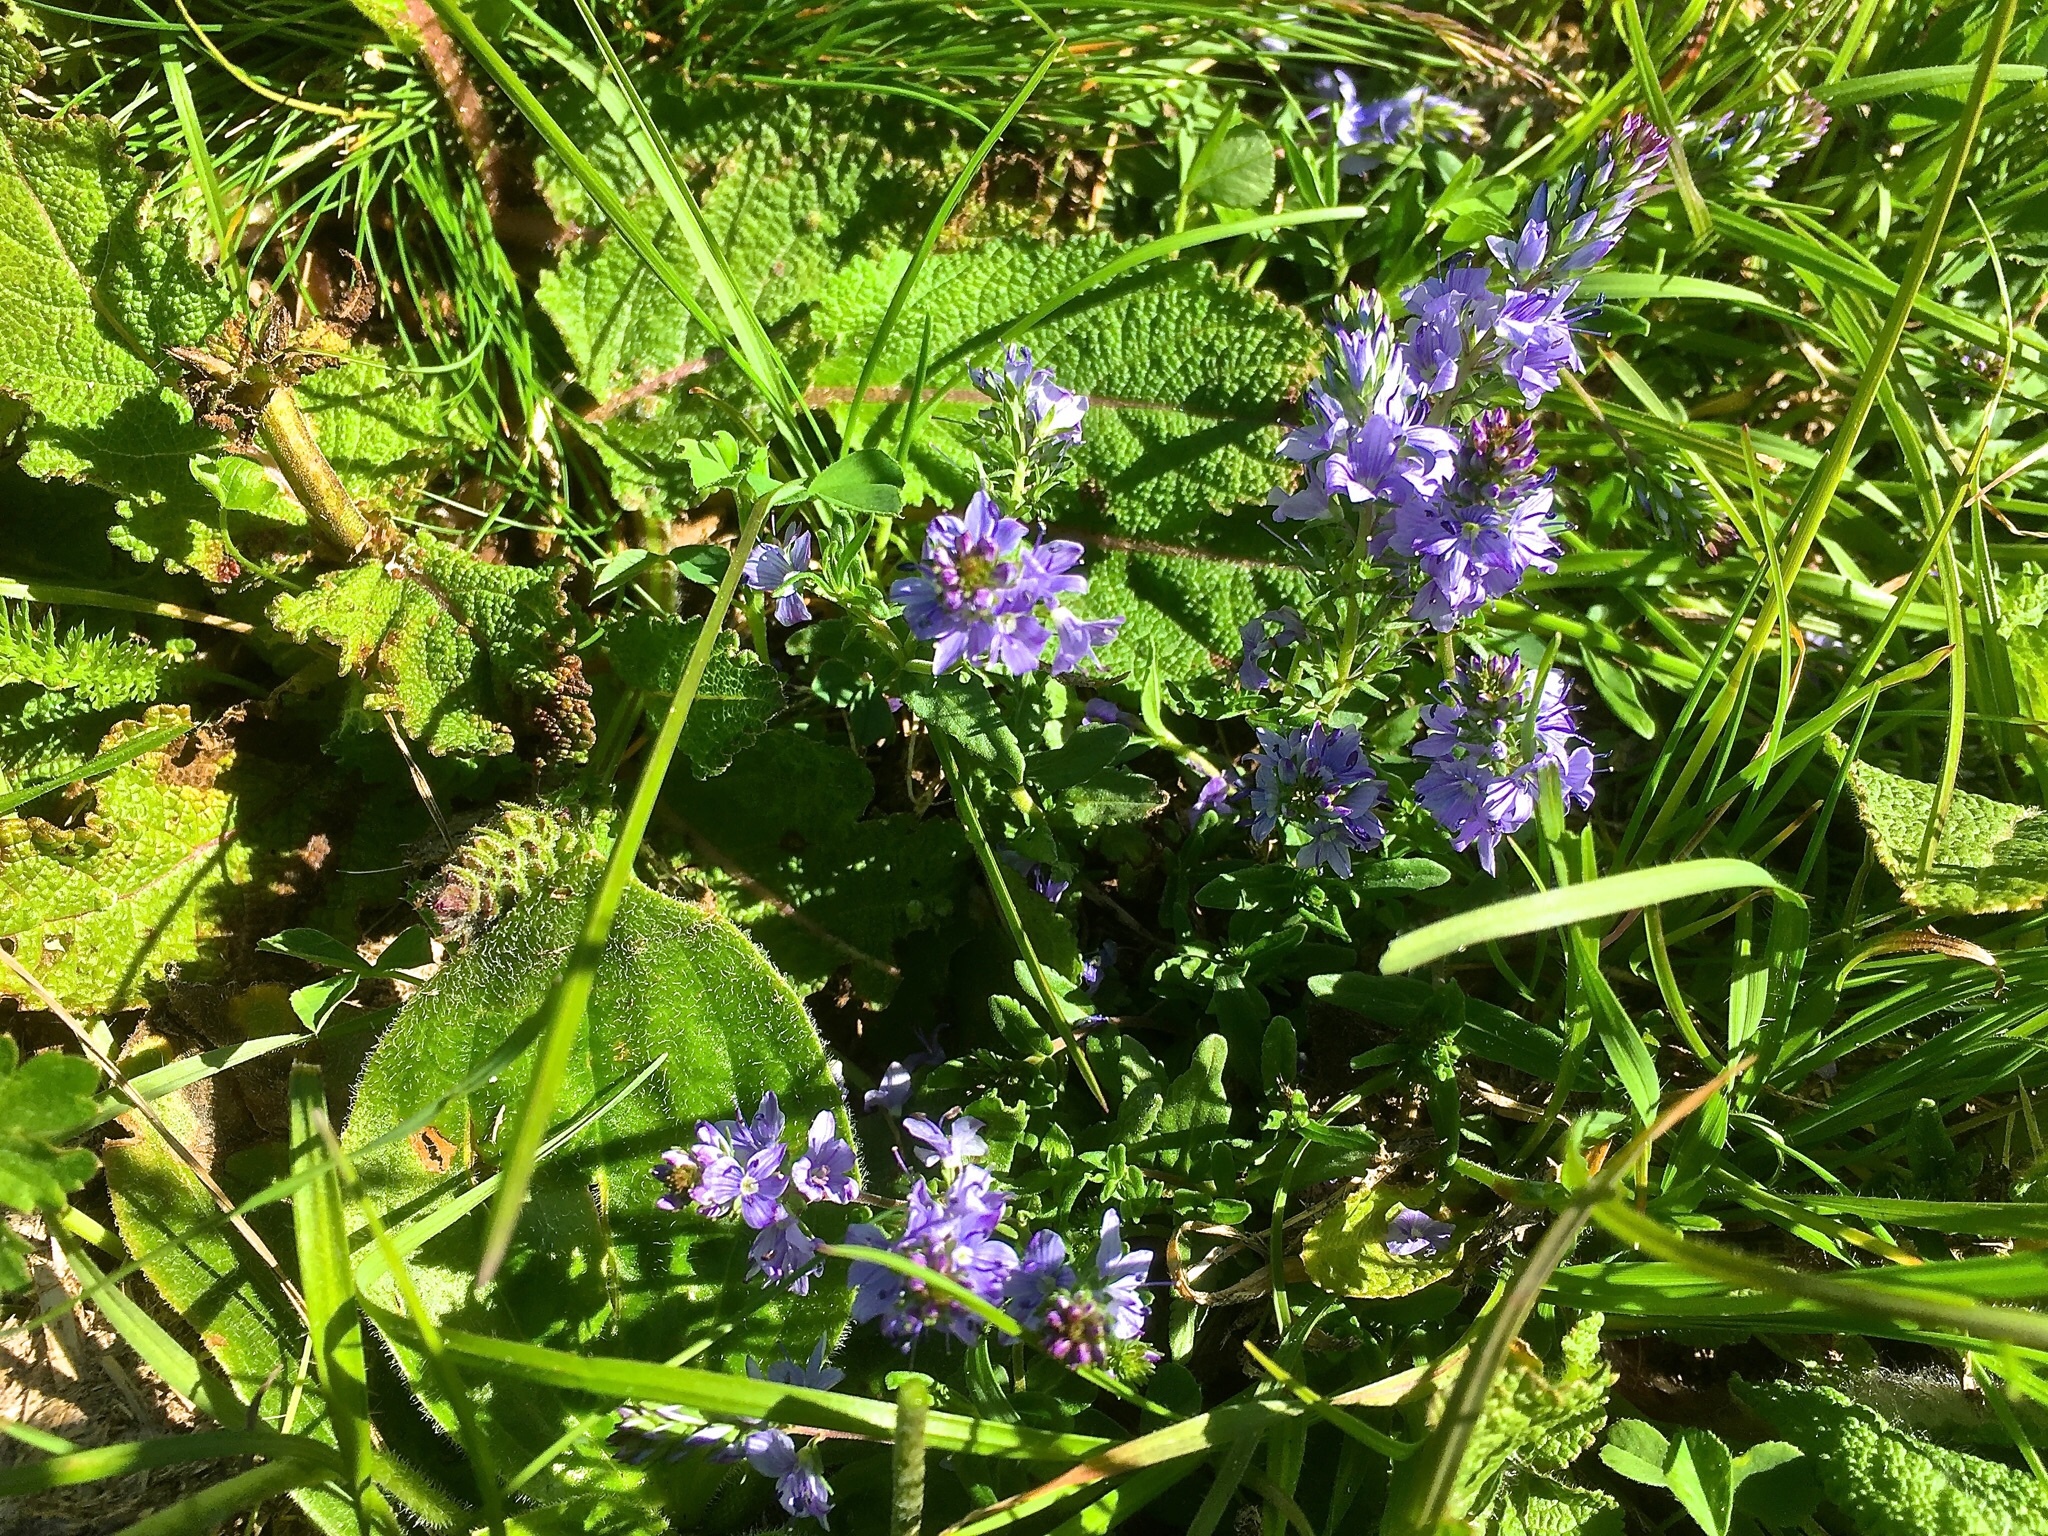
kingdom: Plantae
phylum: Tracheophyta
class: Magnoliopsida
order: Lamiales
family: Plantaginaceae
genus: Veronica
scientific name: Veronica prostrata
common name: Prostrate speedwell
